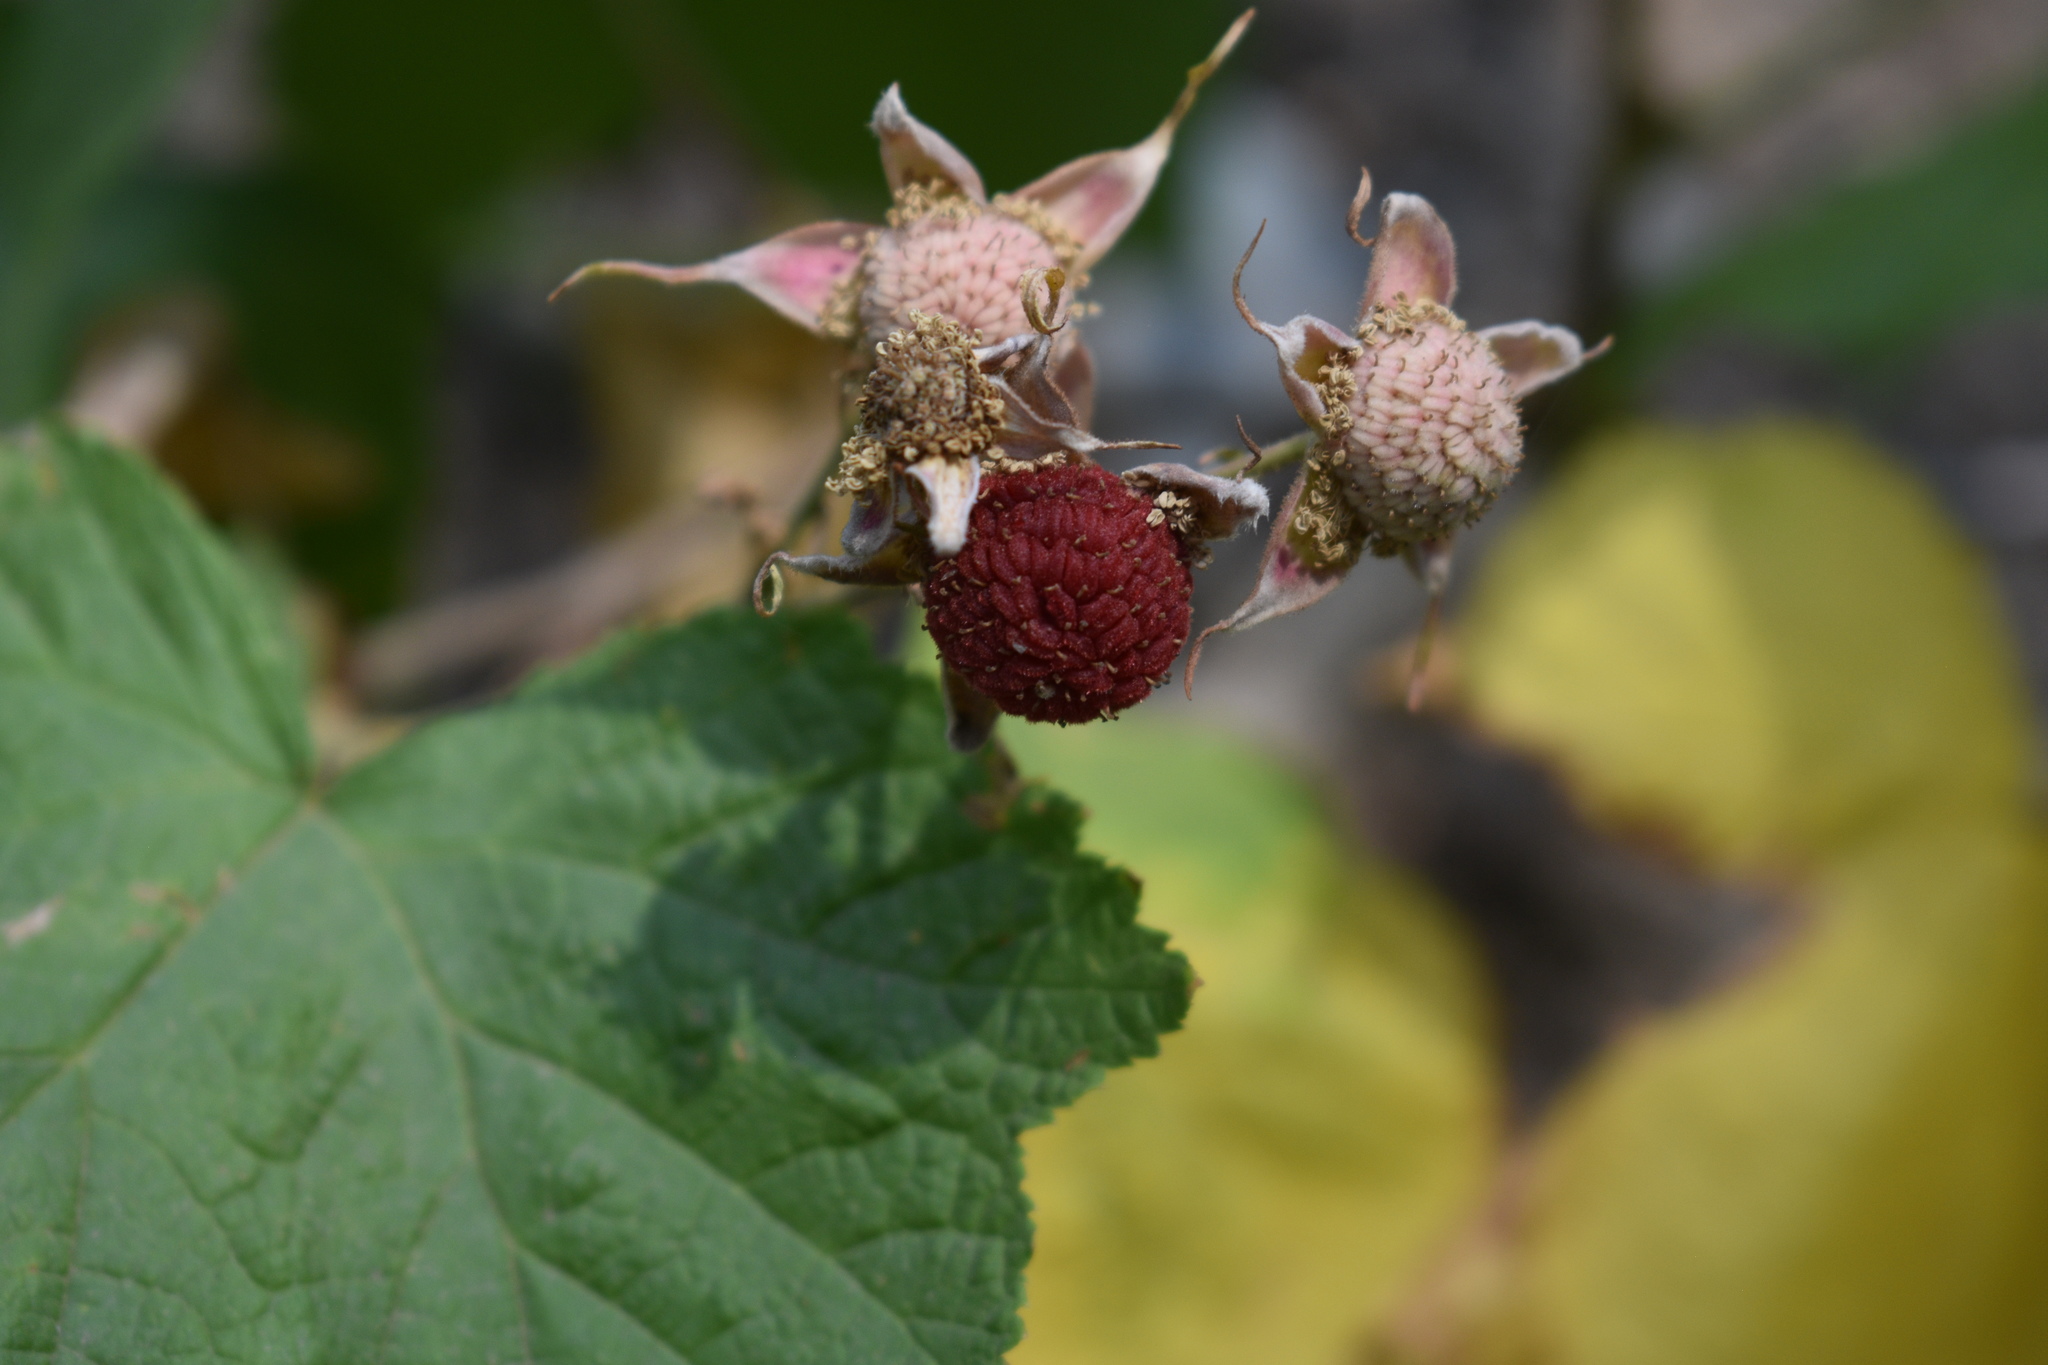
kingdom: Plantae
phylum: Tracheophyta
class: Magnoliopsida
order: Rosales
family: Rosaceae
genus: Rubus
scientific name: Rubus parviflorus
